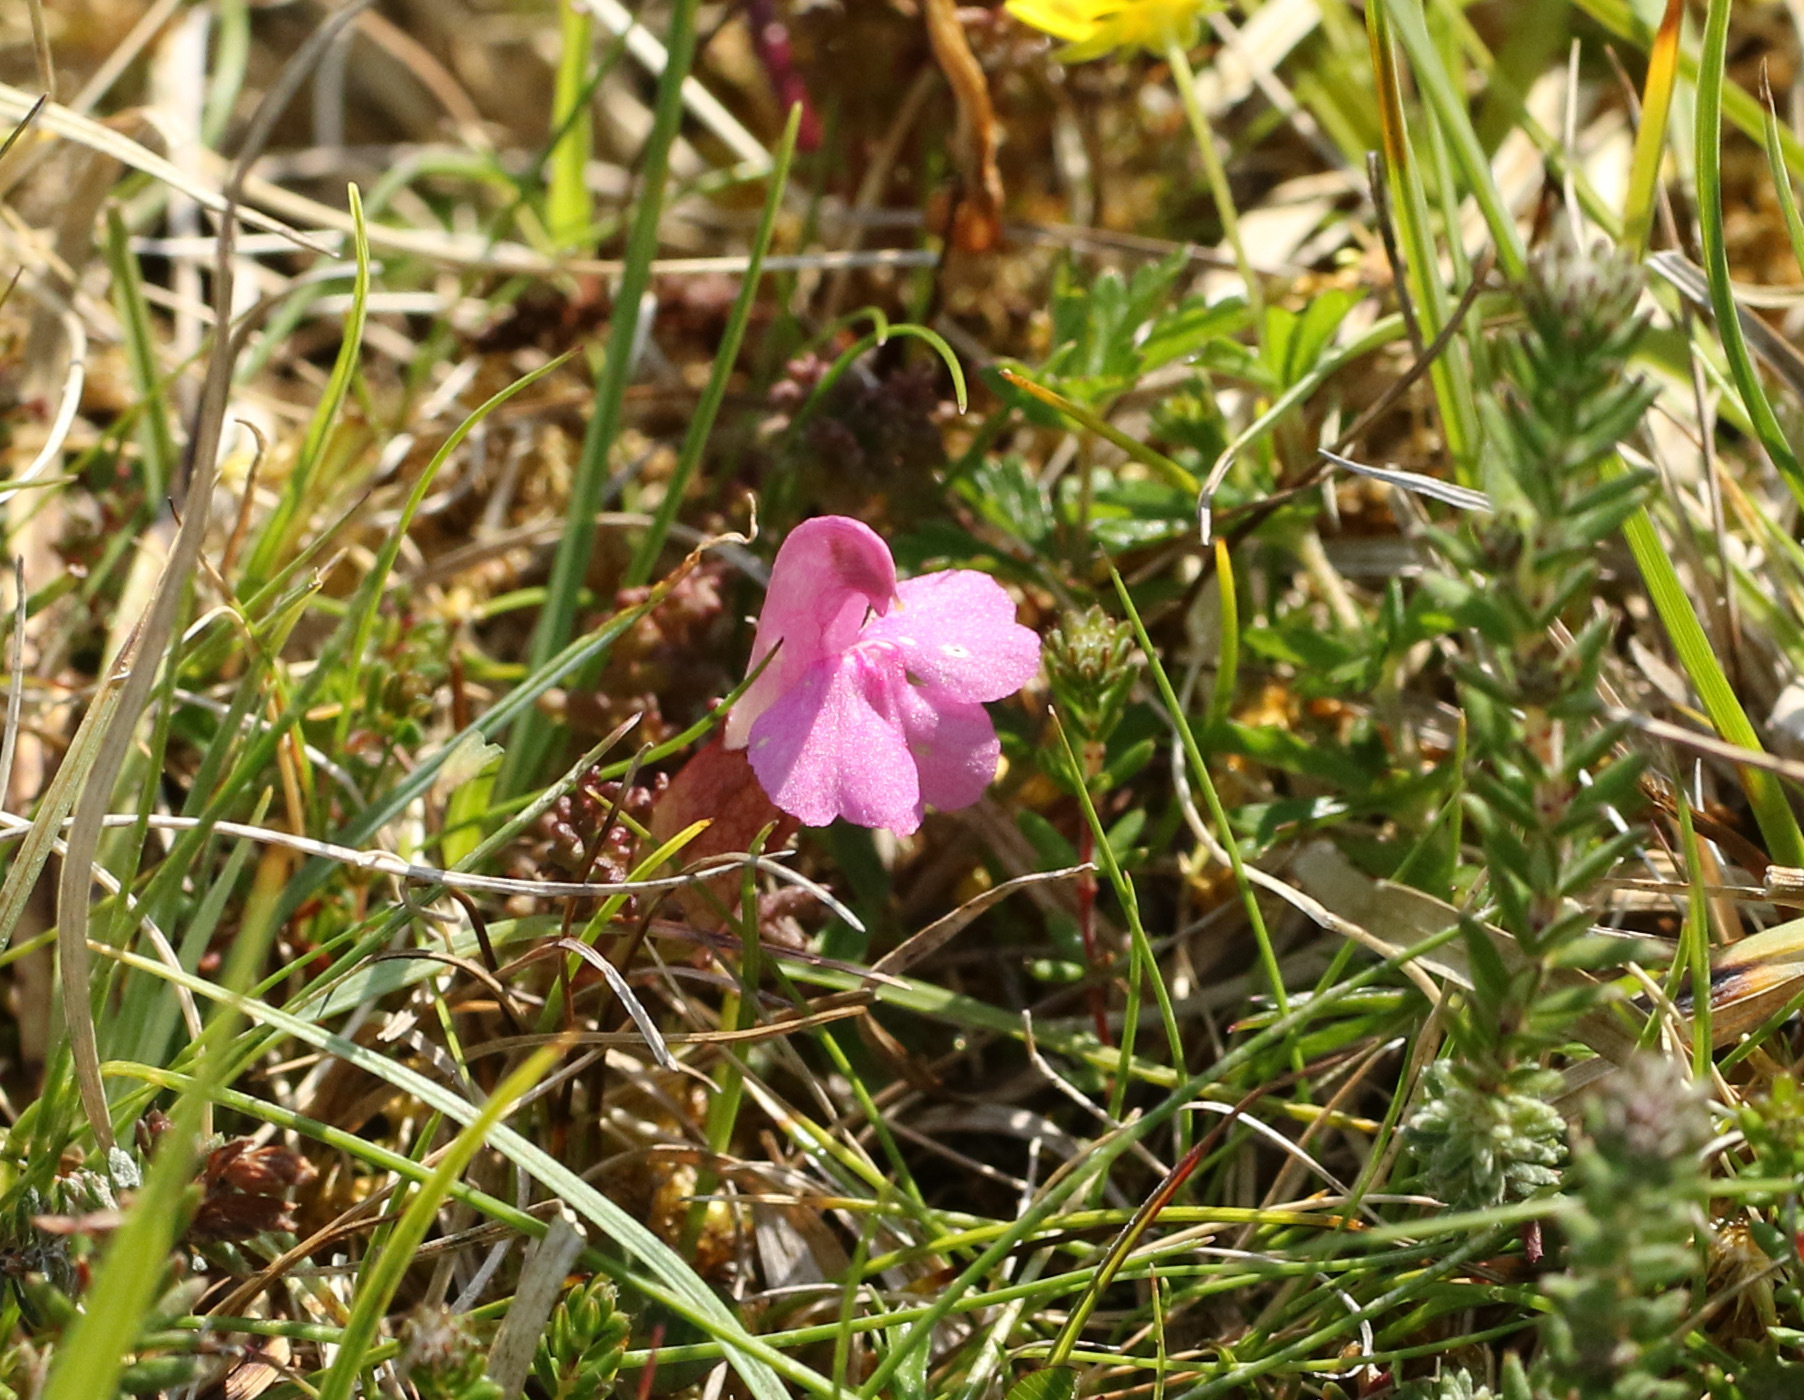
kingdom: Plantae
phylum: Tracheophyta
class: Magnoliopsida
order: Lamiales
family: Orobanchaceae
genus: Pedicularis
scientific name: Pedicularis sylvatica
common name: Lousewort
